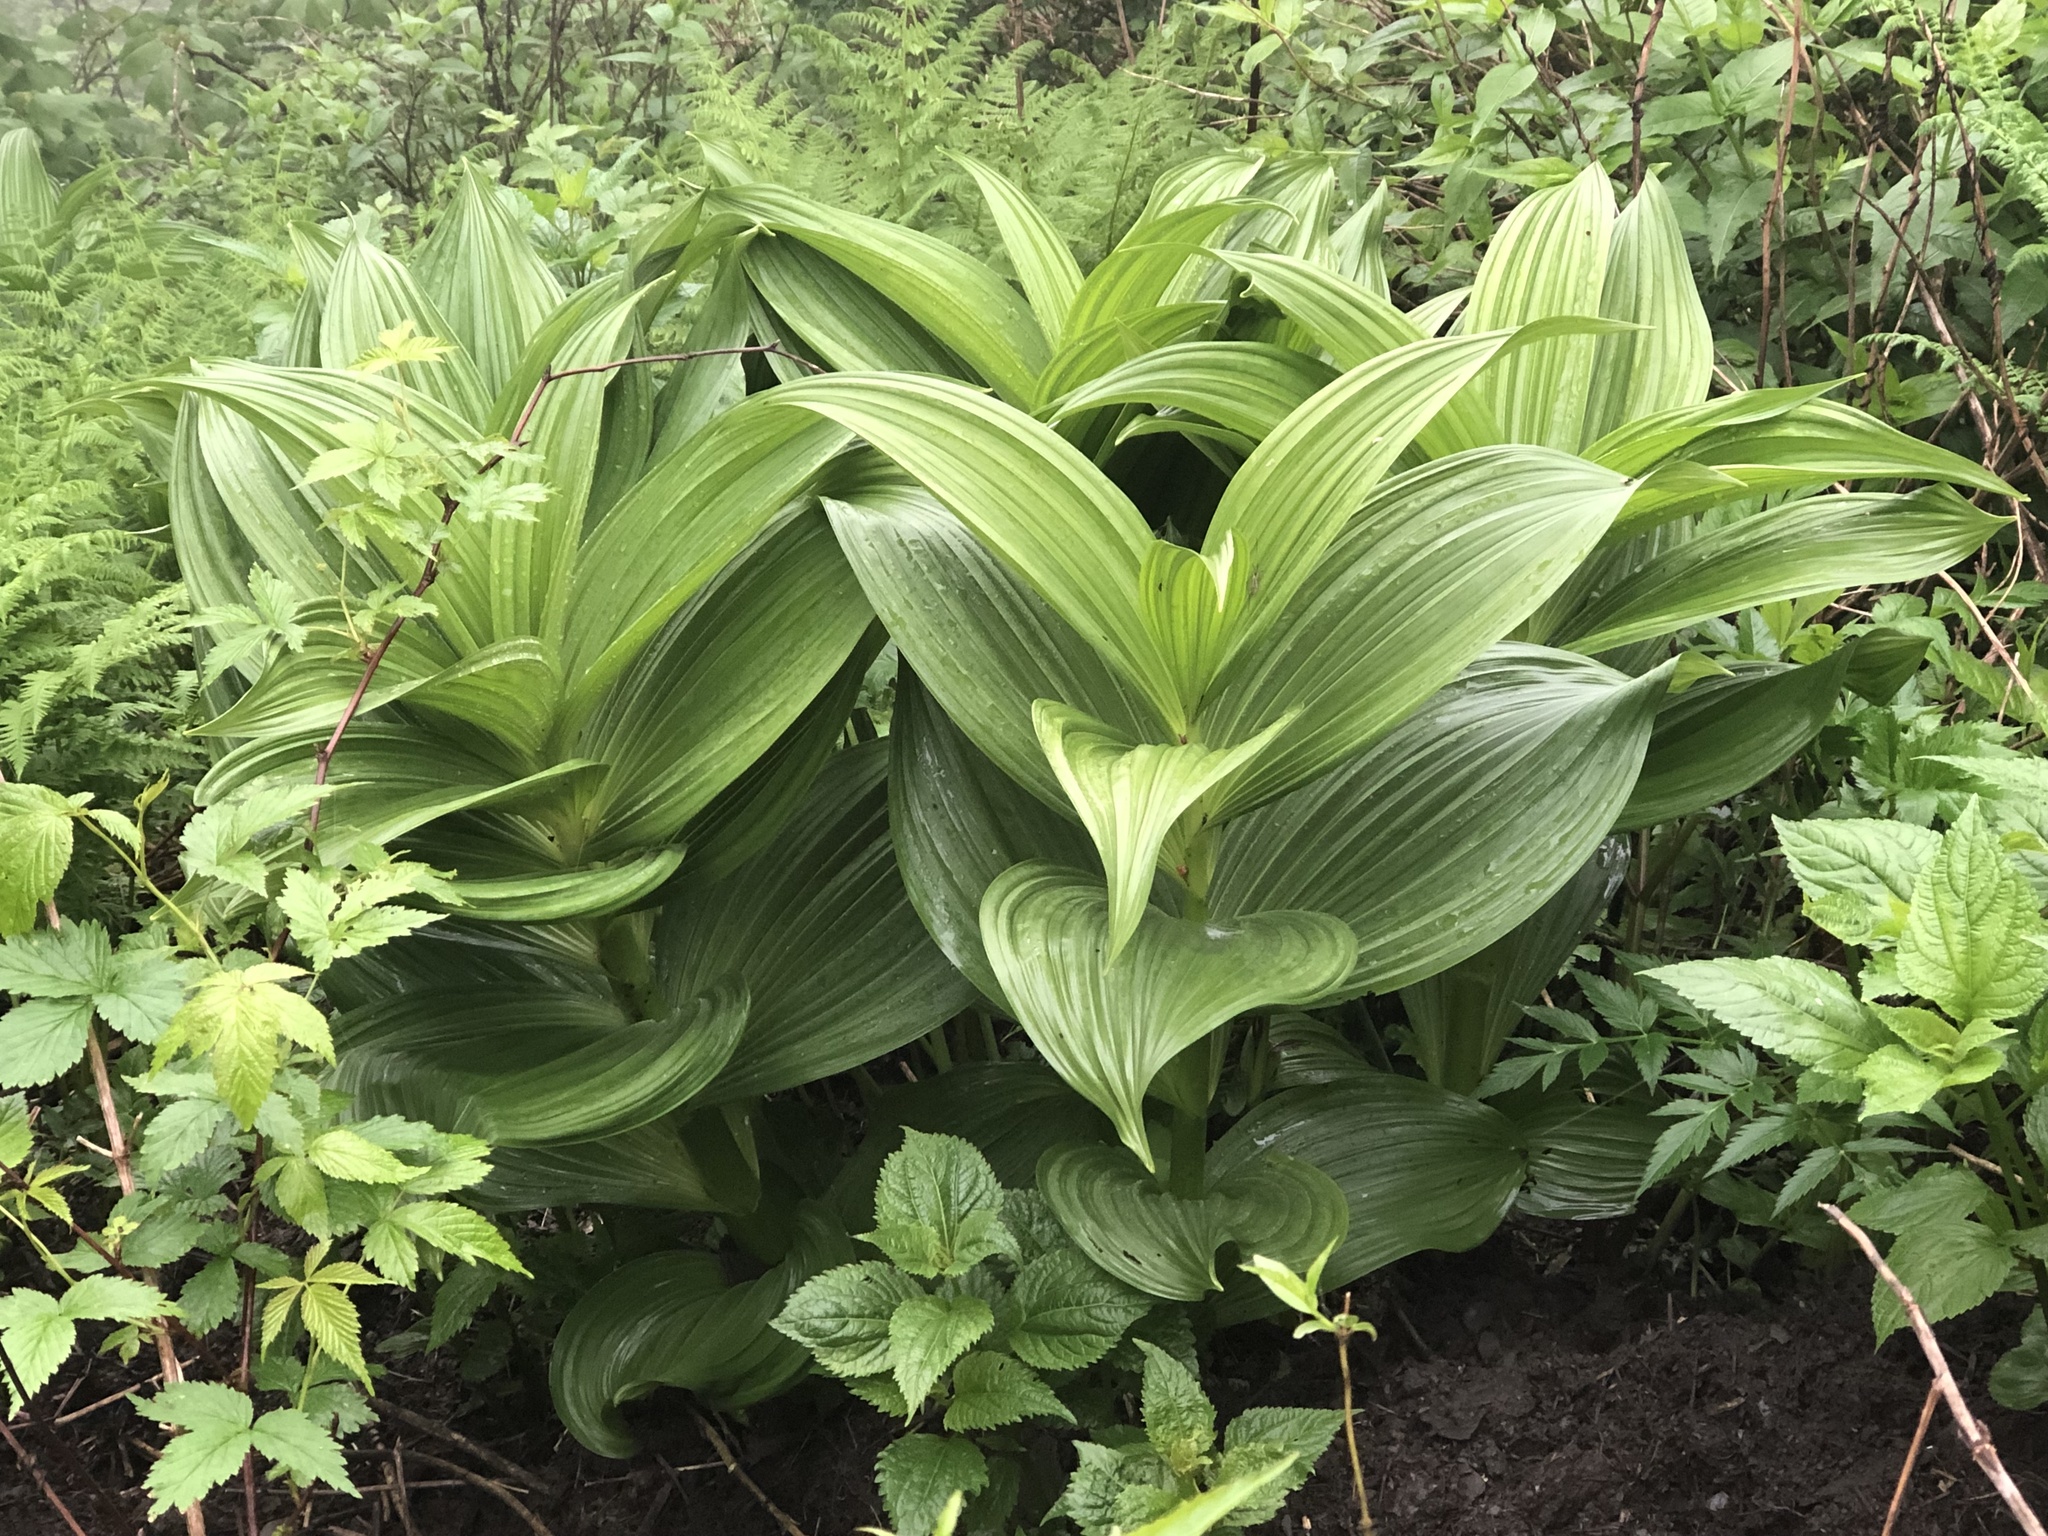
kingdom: Plantae
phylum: Tracheophyta
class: Liliopsida
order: Liliales
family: Melanthiaceae
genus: Veratrum
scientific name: Veratrum viride
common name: American false hellebore
